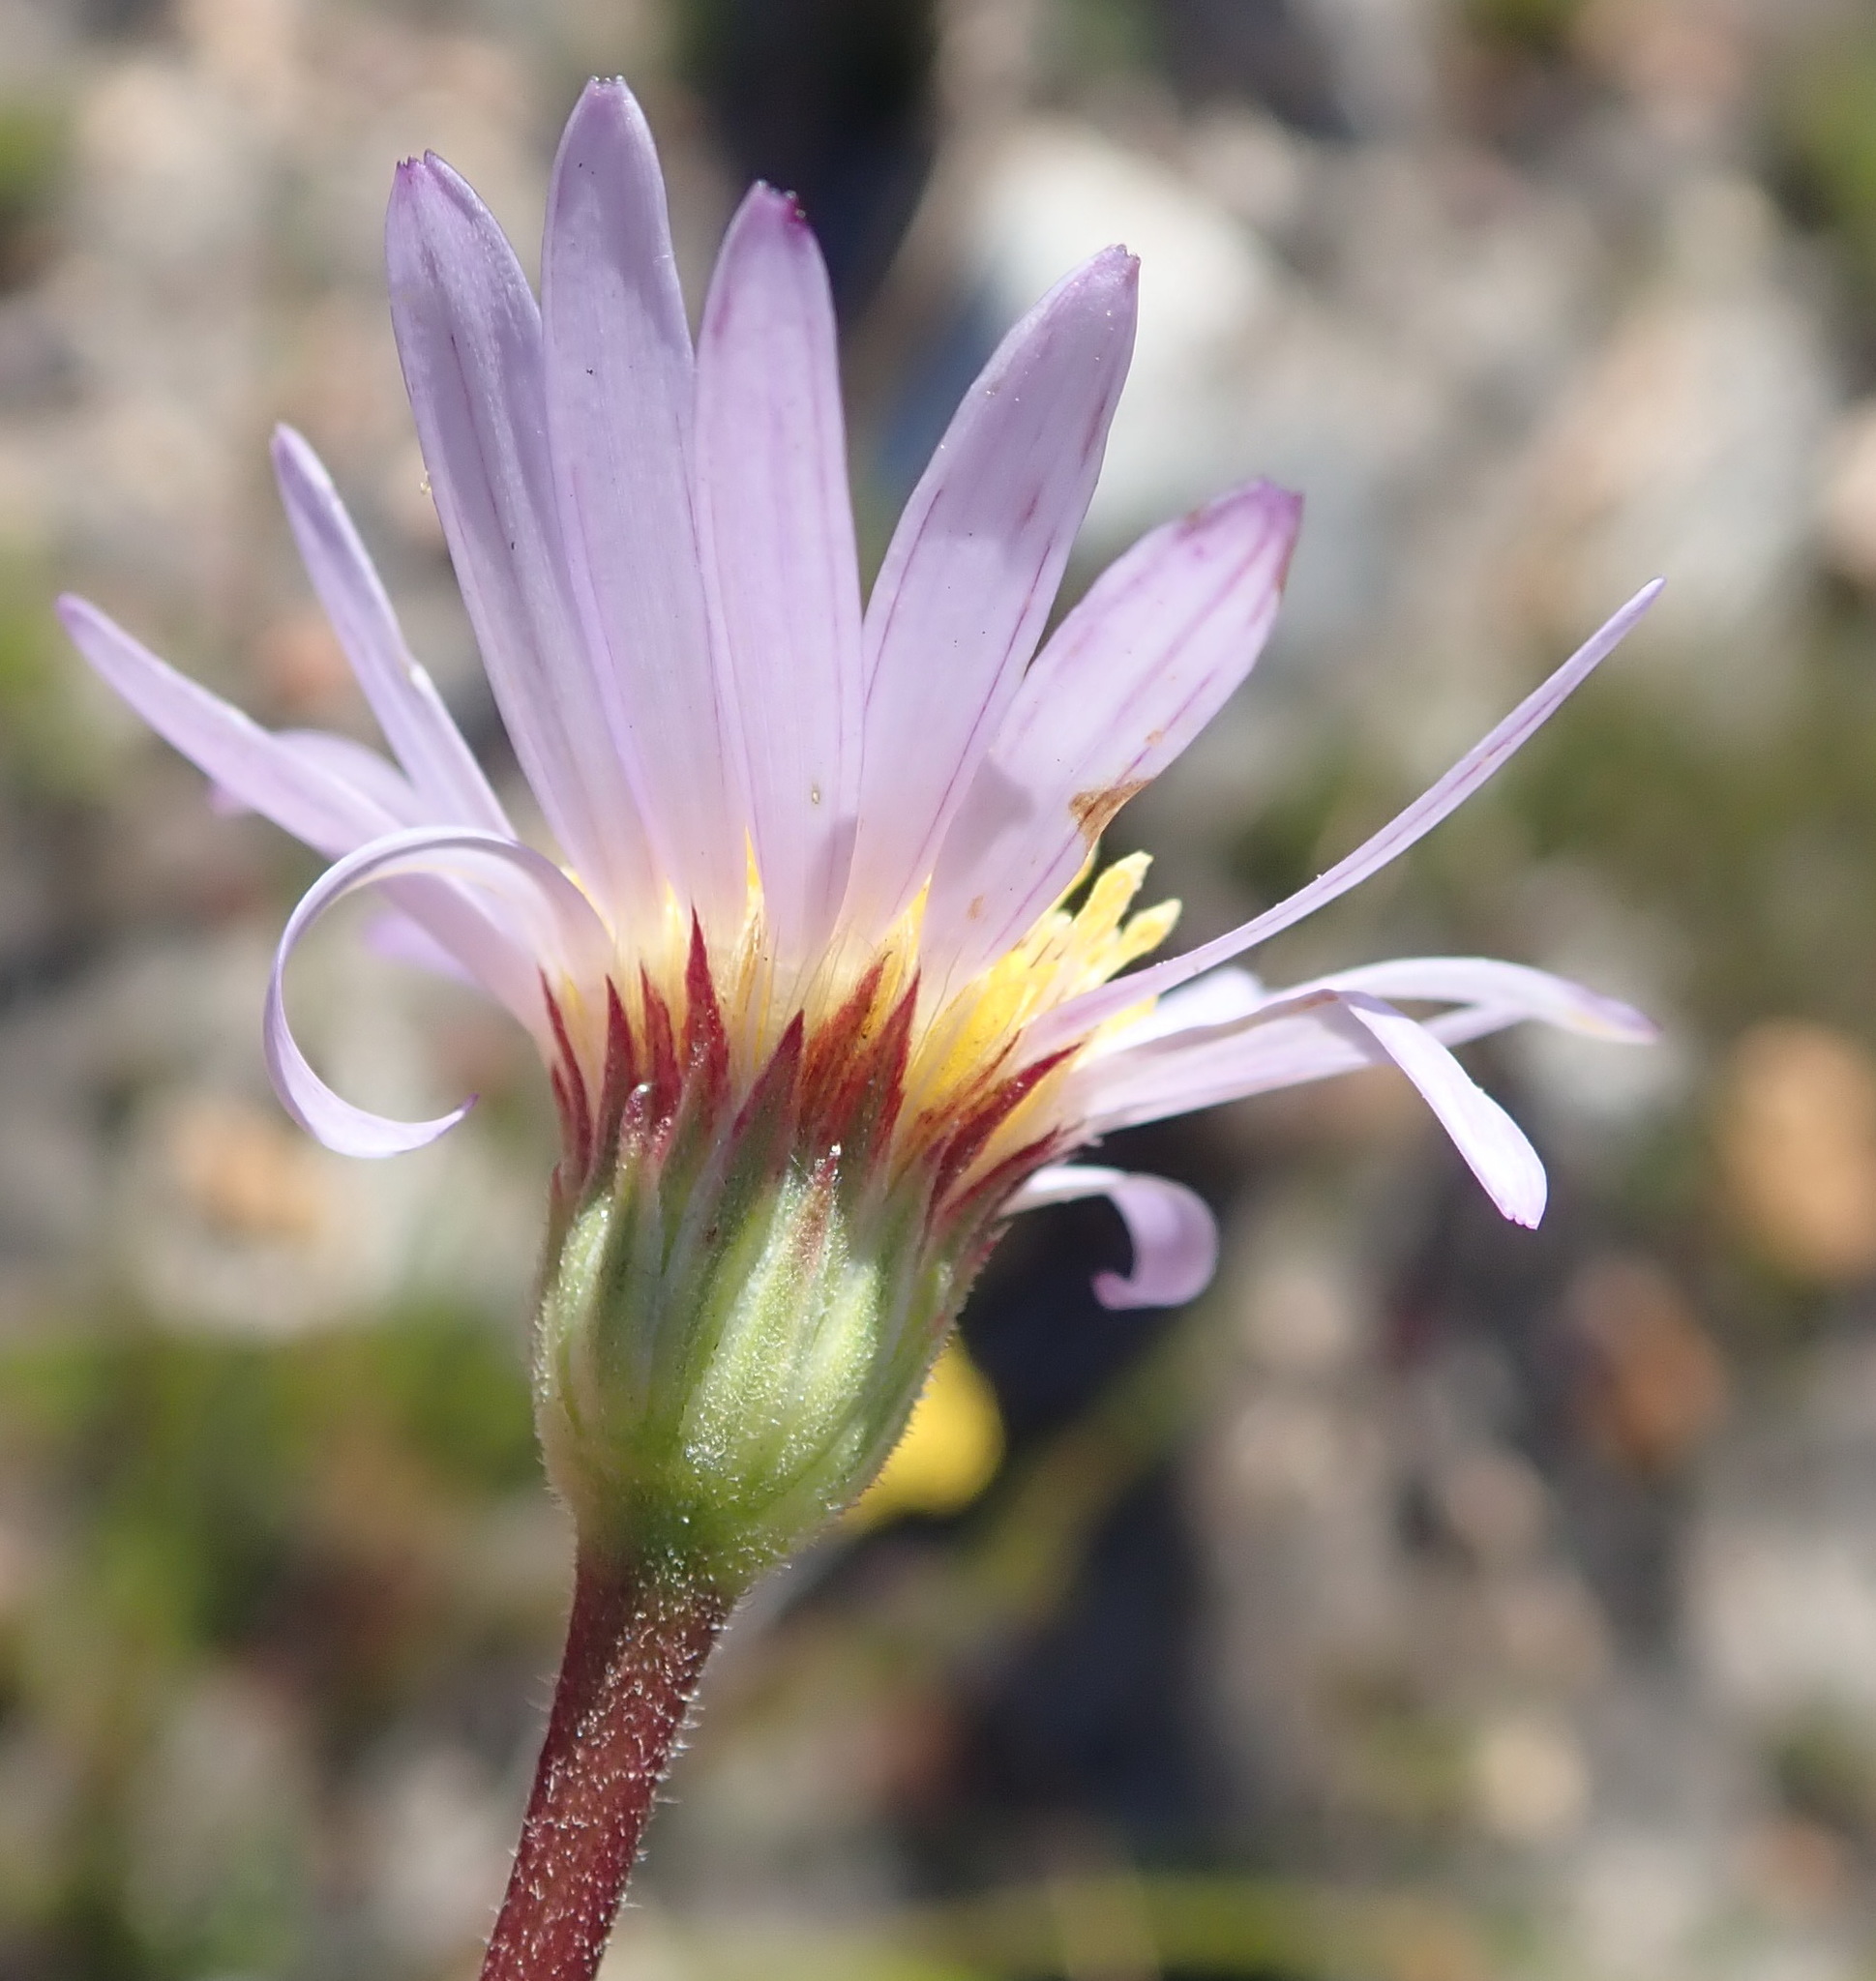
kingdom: Plantae
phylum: Tracheophyta
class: Magnoliopsida
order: Asterales
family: Asteraceae
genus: Afroaster
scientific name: Afroaster hispidus
